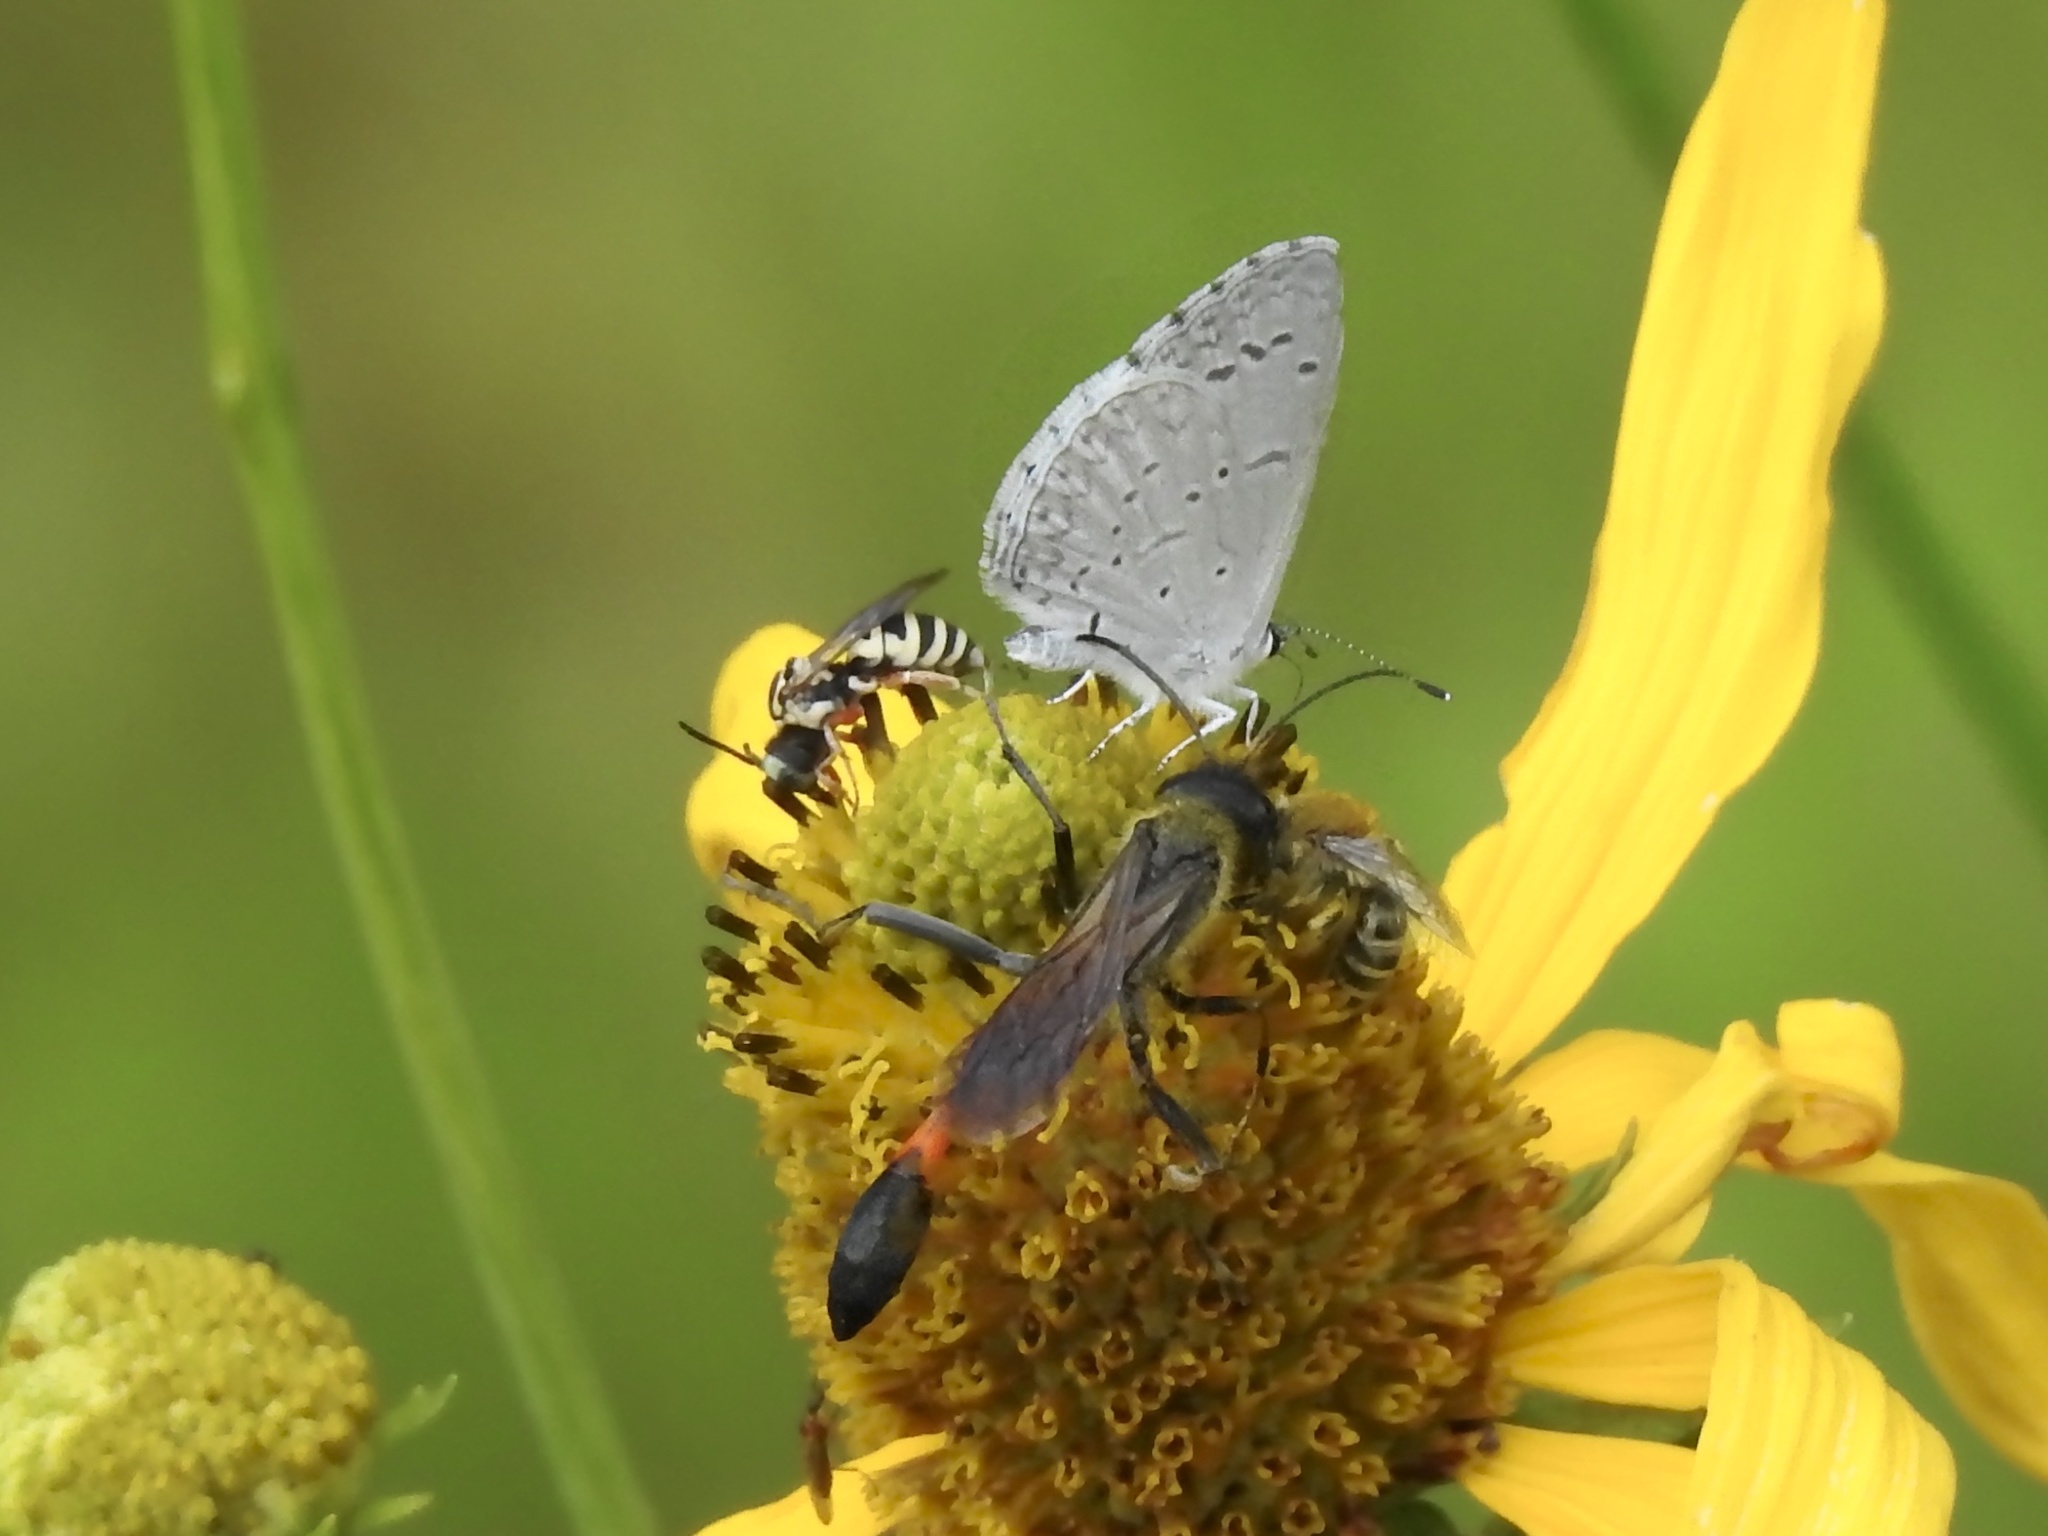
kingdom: Animalia
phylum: Arthropoda
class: Insecta
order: Hymenoptera
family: Apidae
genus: Triepeolus
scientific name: Triepeolus
